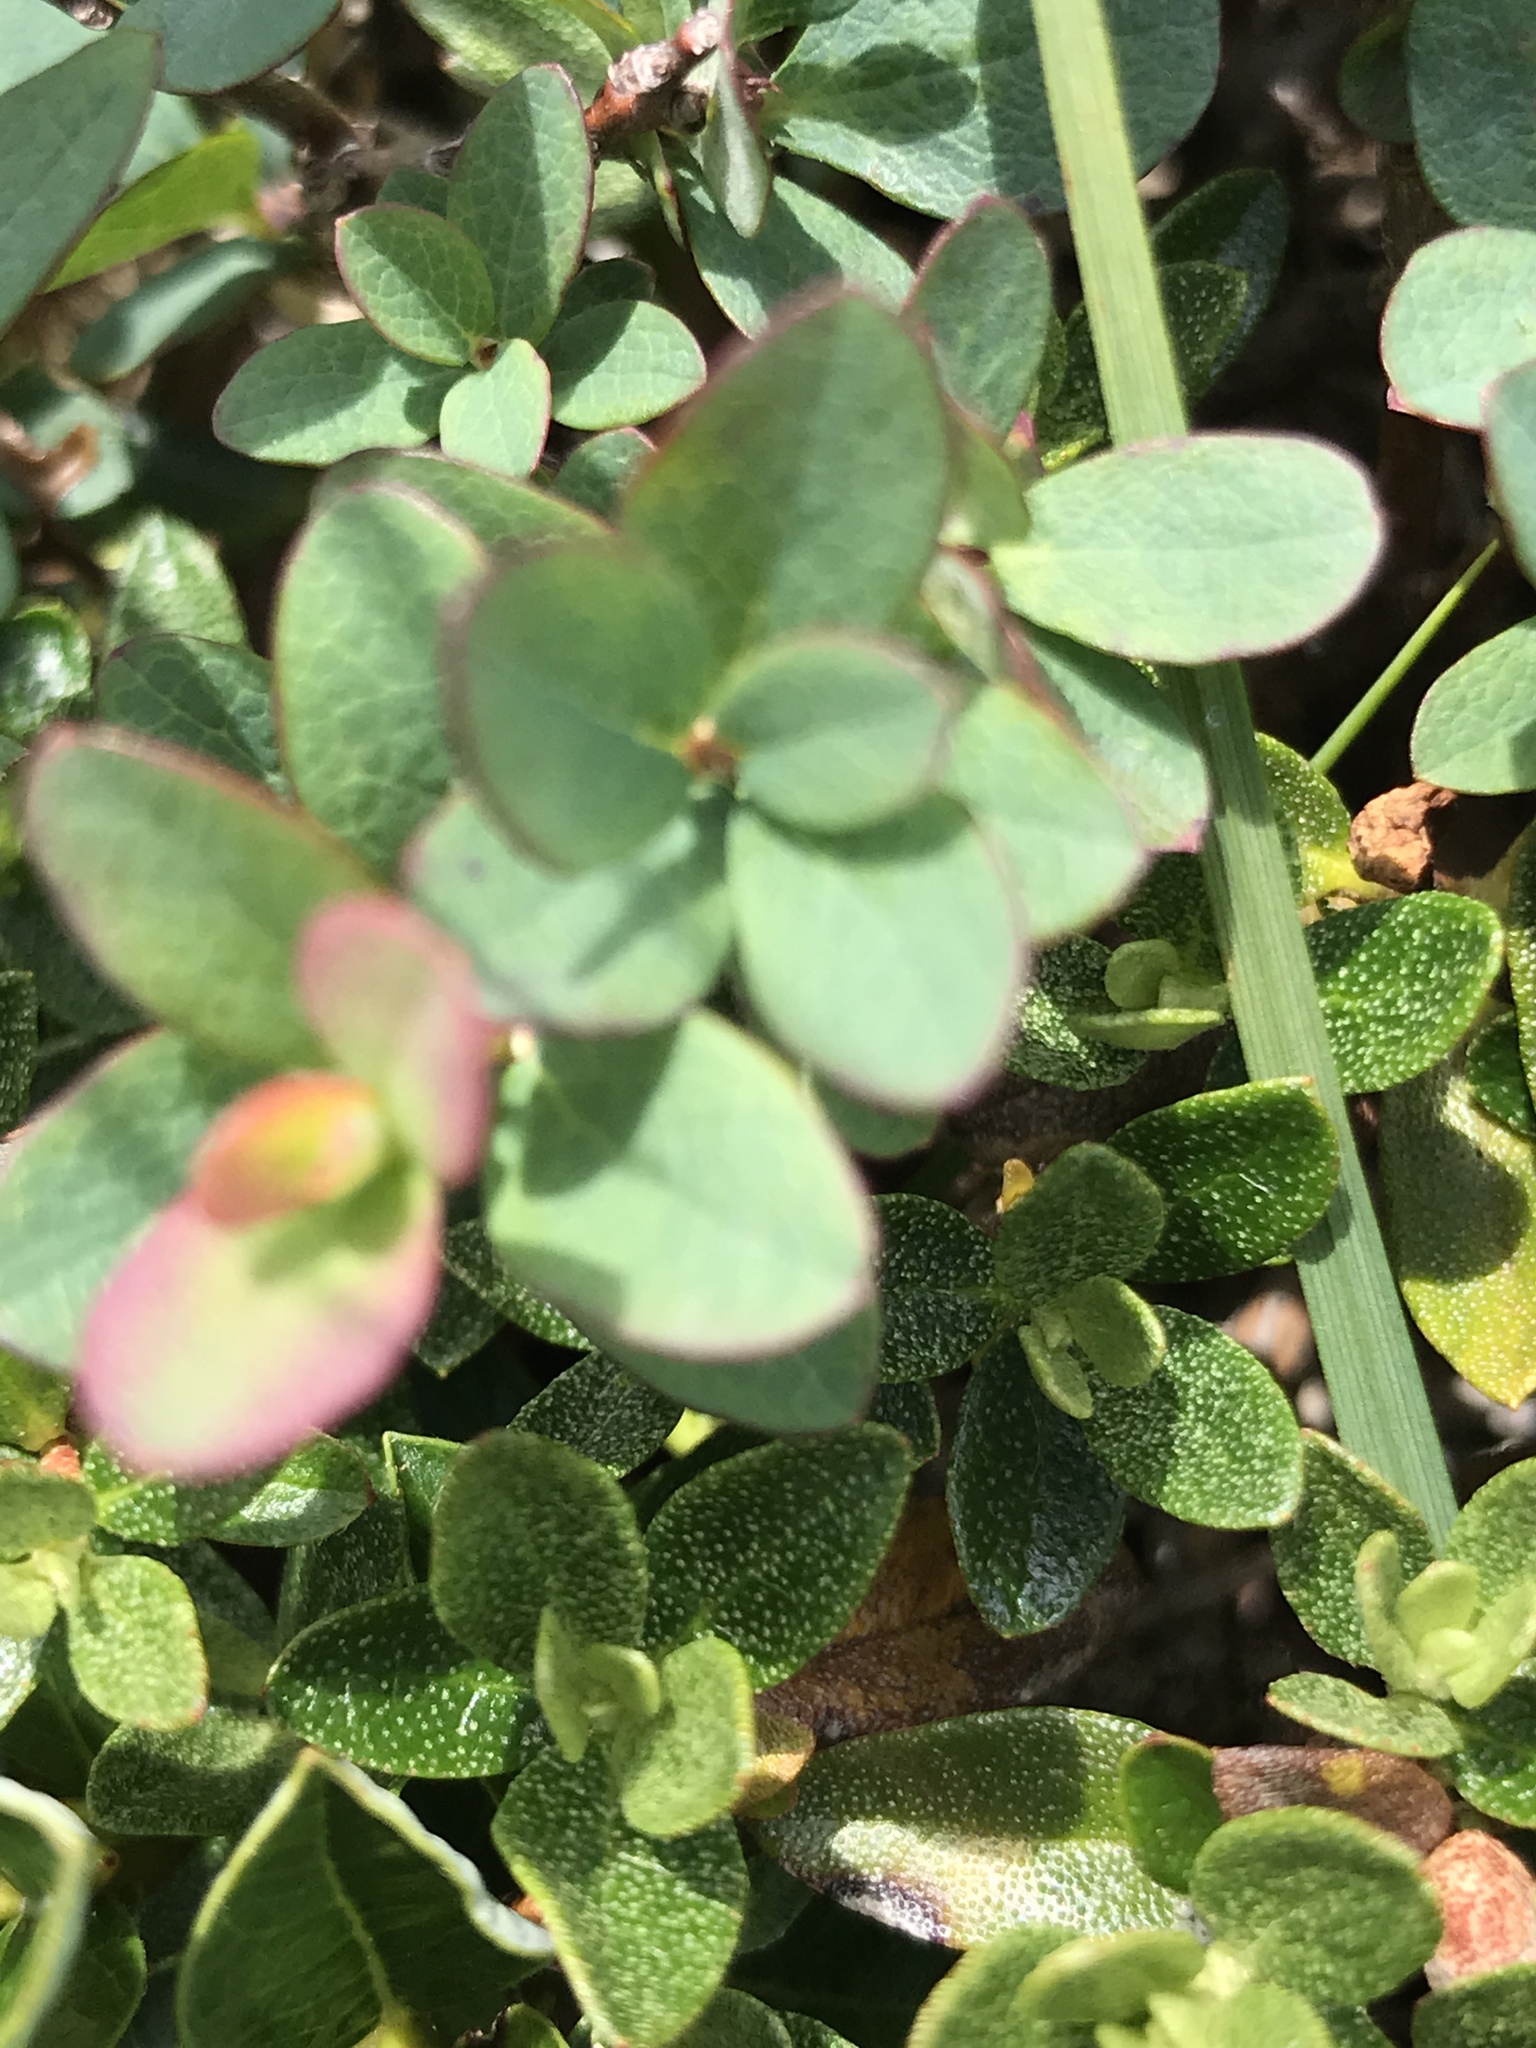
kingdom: Plantae
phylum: Tracheophyta
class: Magnoliopsida
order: Ericales
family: Ericaceae
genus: Vaccinium
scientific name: Vaccinium uliginosum
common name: Bog bilberry
